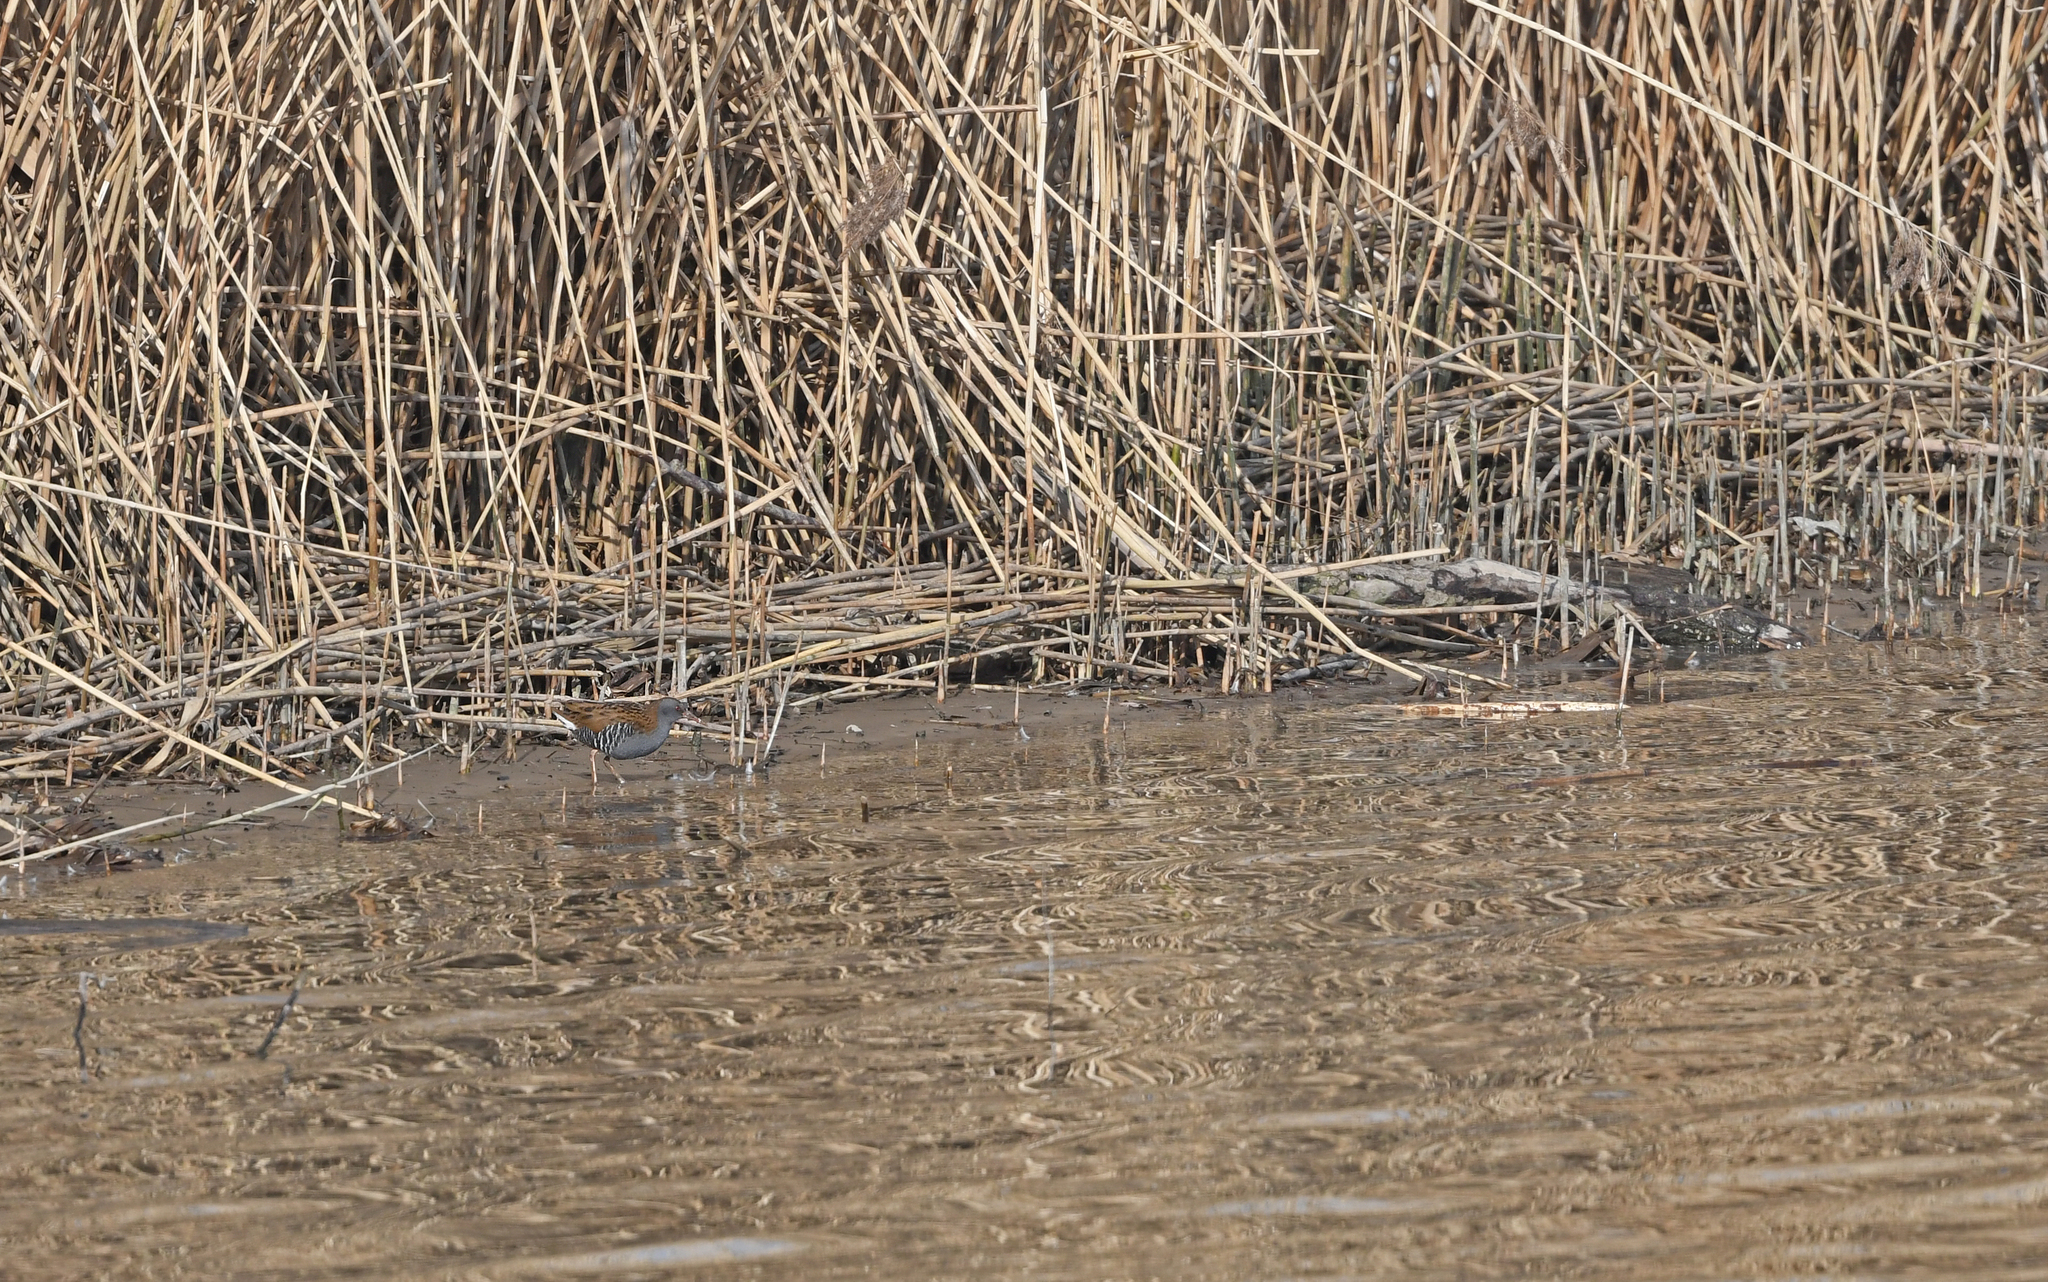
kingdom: Animalia
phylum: Chordata
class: Aves
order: Gruiformes
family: Rallidae
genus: Rallus
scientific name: Rallus aquaticus
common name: Water rail
